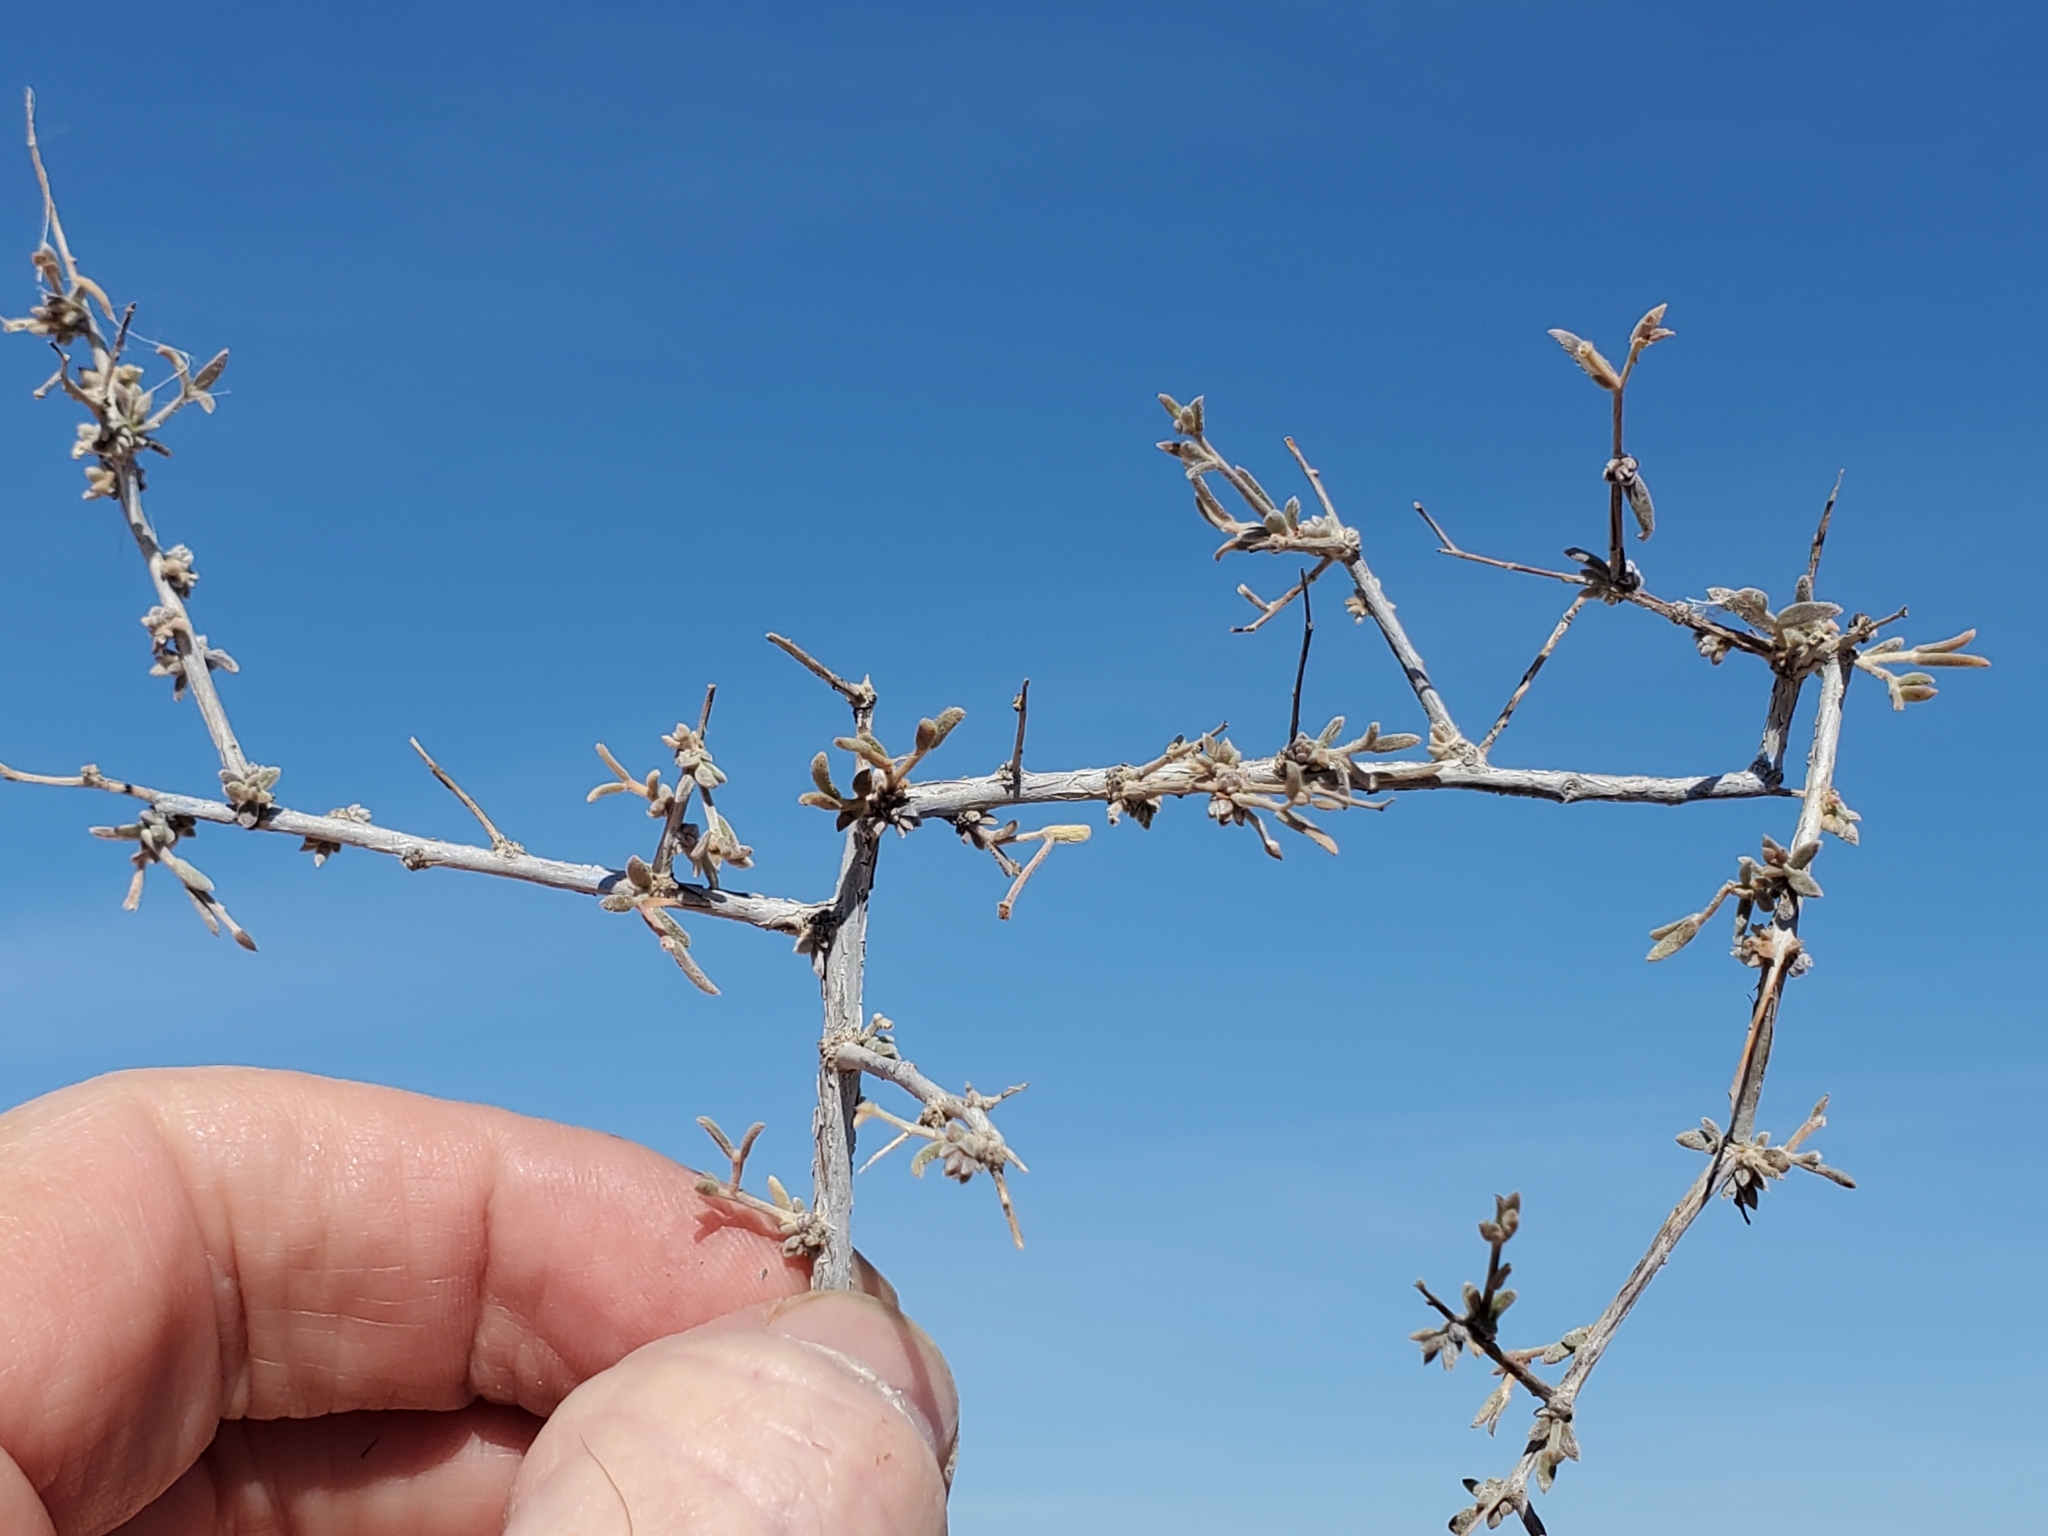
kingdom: Plantae
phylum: Tracheophyta
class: Magnoliopsida
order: Zygophyllales
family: Krameriaceae
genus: Krameria
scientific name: Krameria erecta
